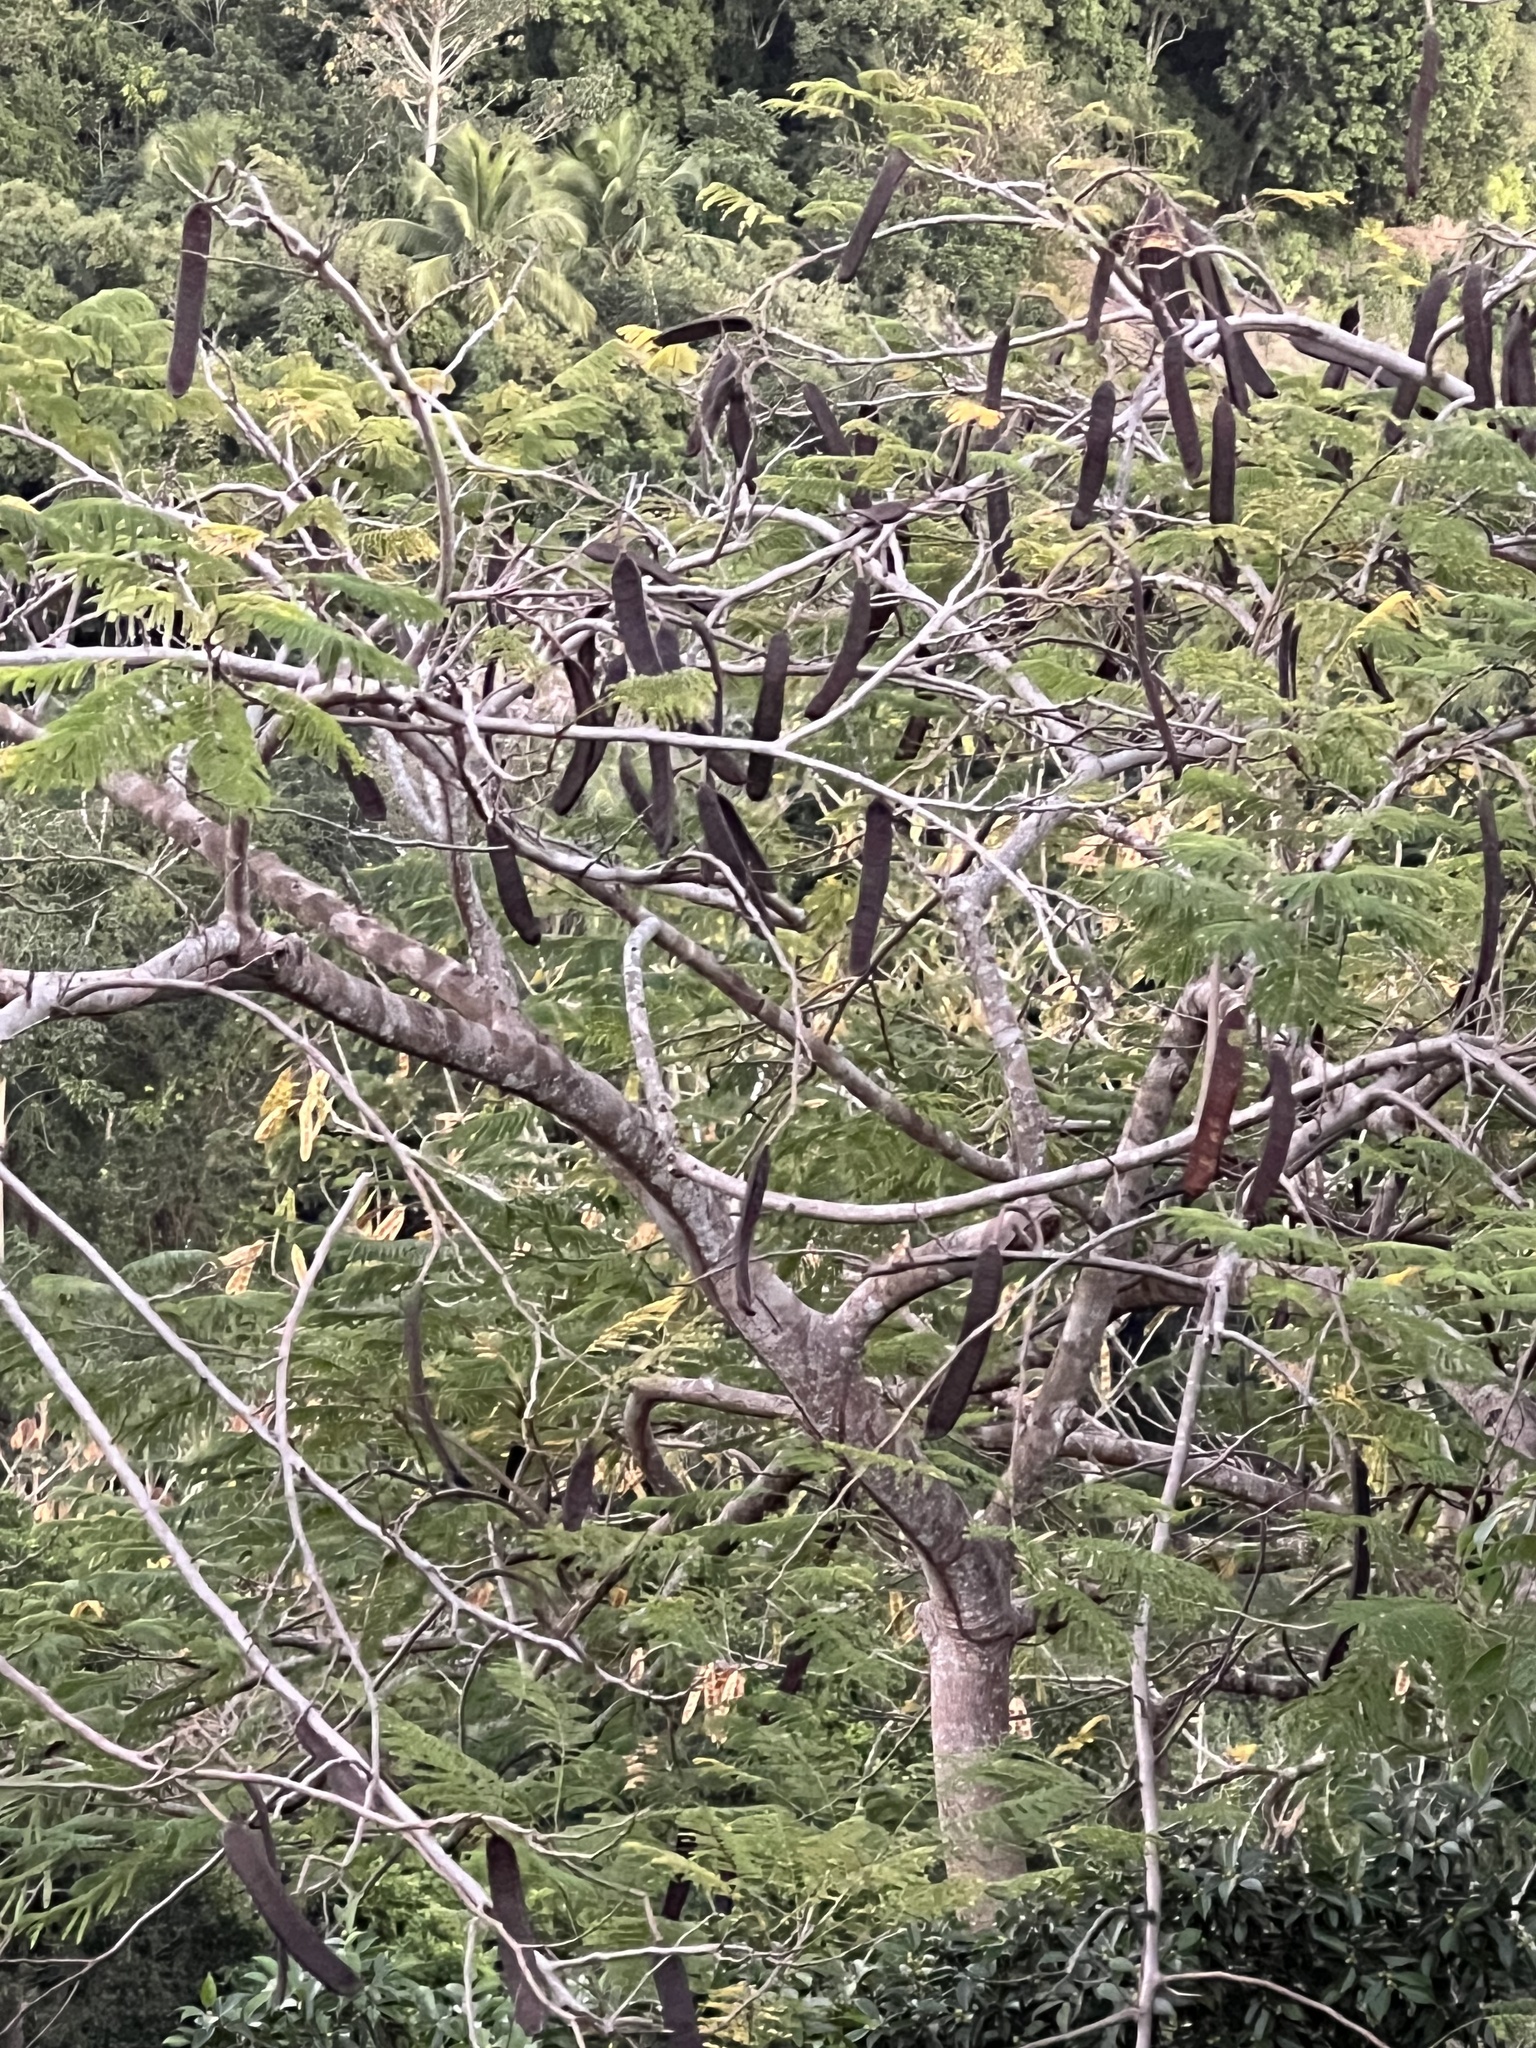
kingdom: Plantae
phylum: Tracheophyta
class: Magnoliopsida
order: Fabales
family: Fabaceae
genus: Delonix
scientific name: Delonix regia
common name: Royal poinciana
